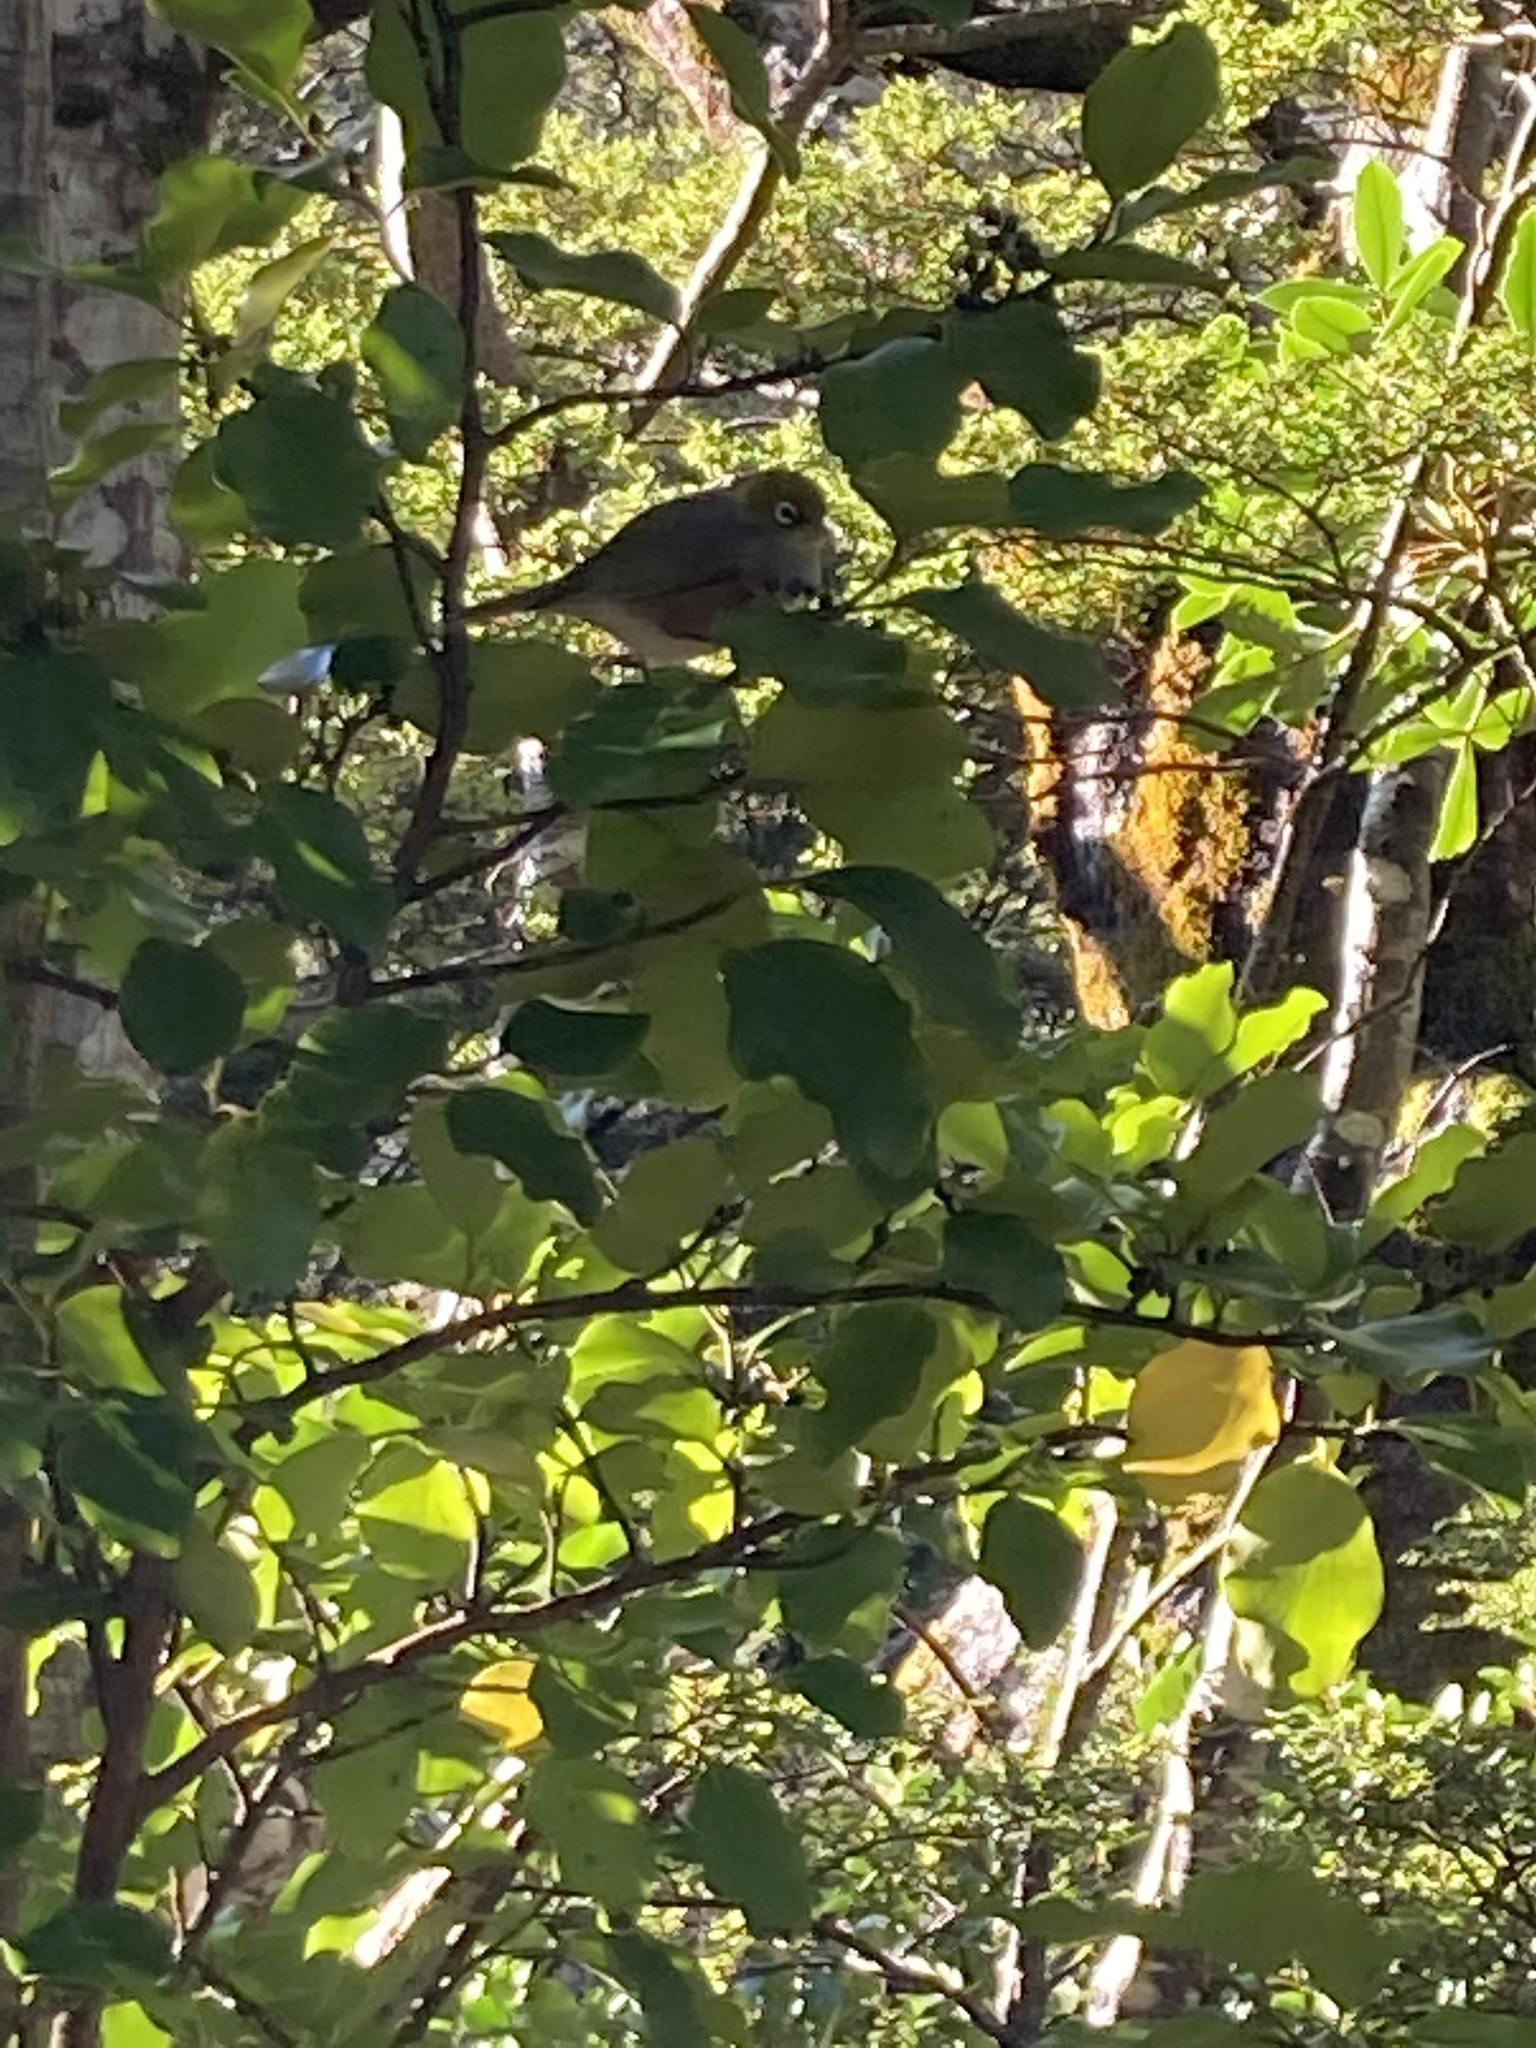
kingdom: Animalia
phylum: Chordata
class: Aves
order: Passeriformes
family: Zosteropidae
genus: Zosterops
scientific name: Zosterops lateralis
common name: Silvereye
